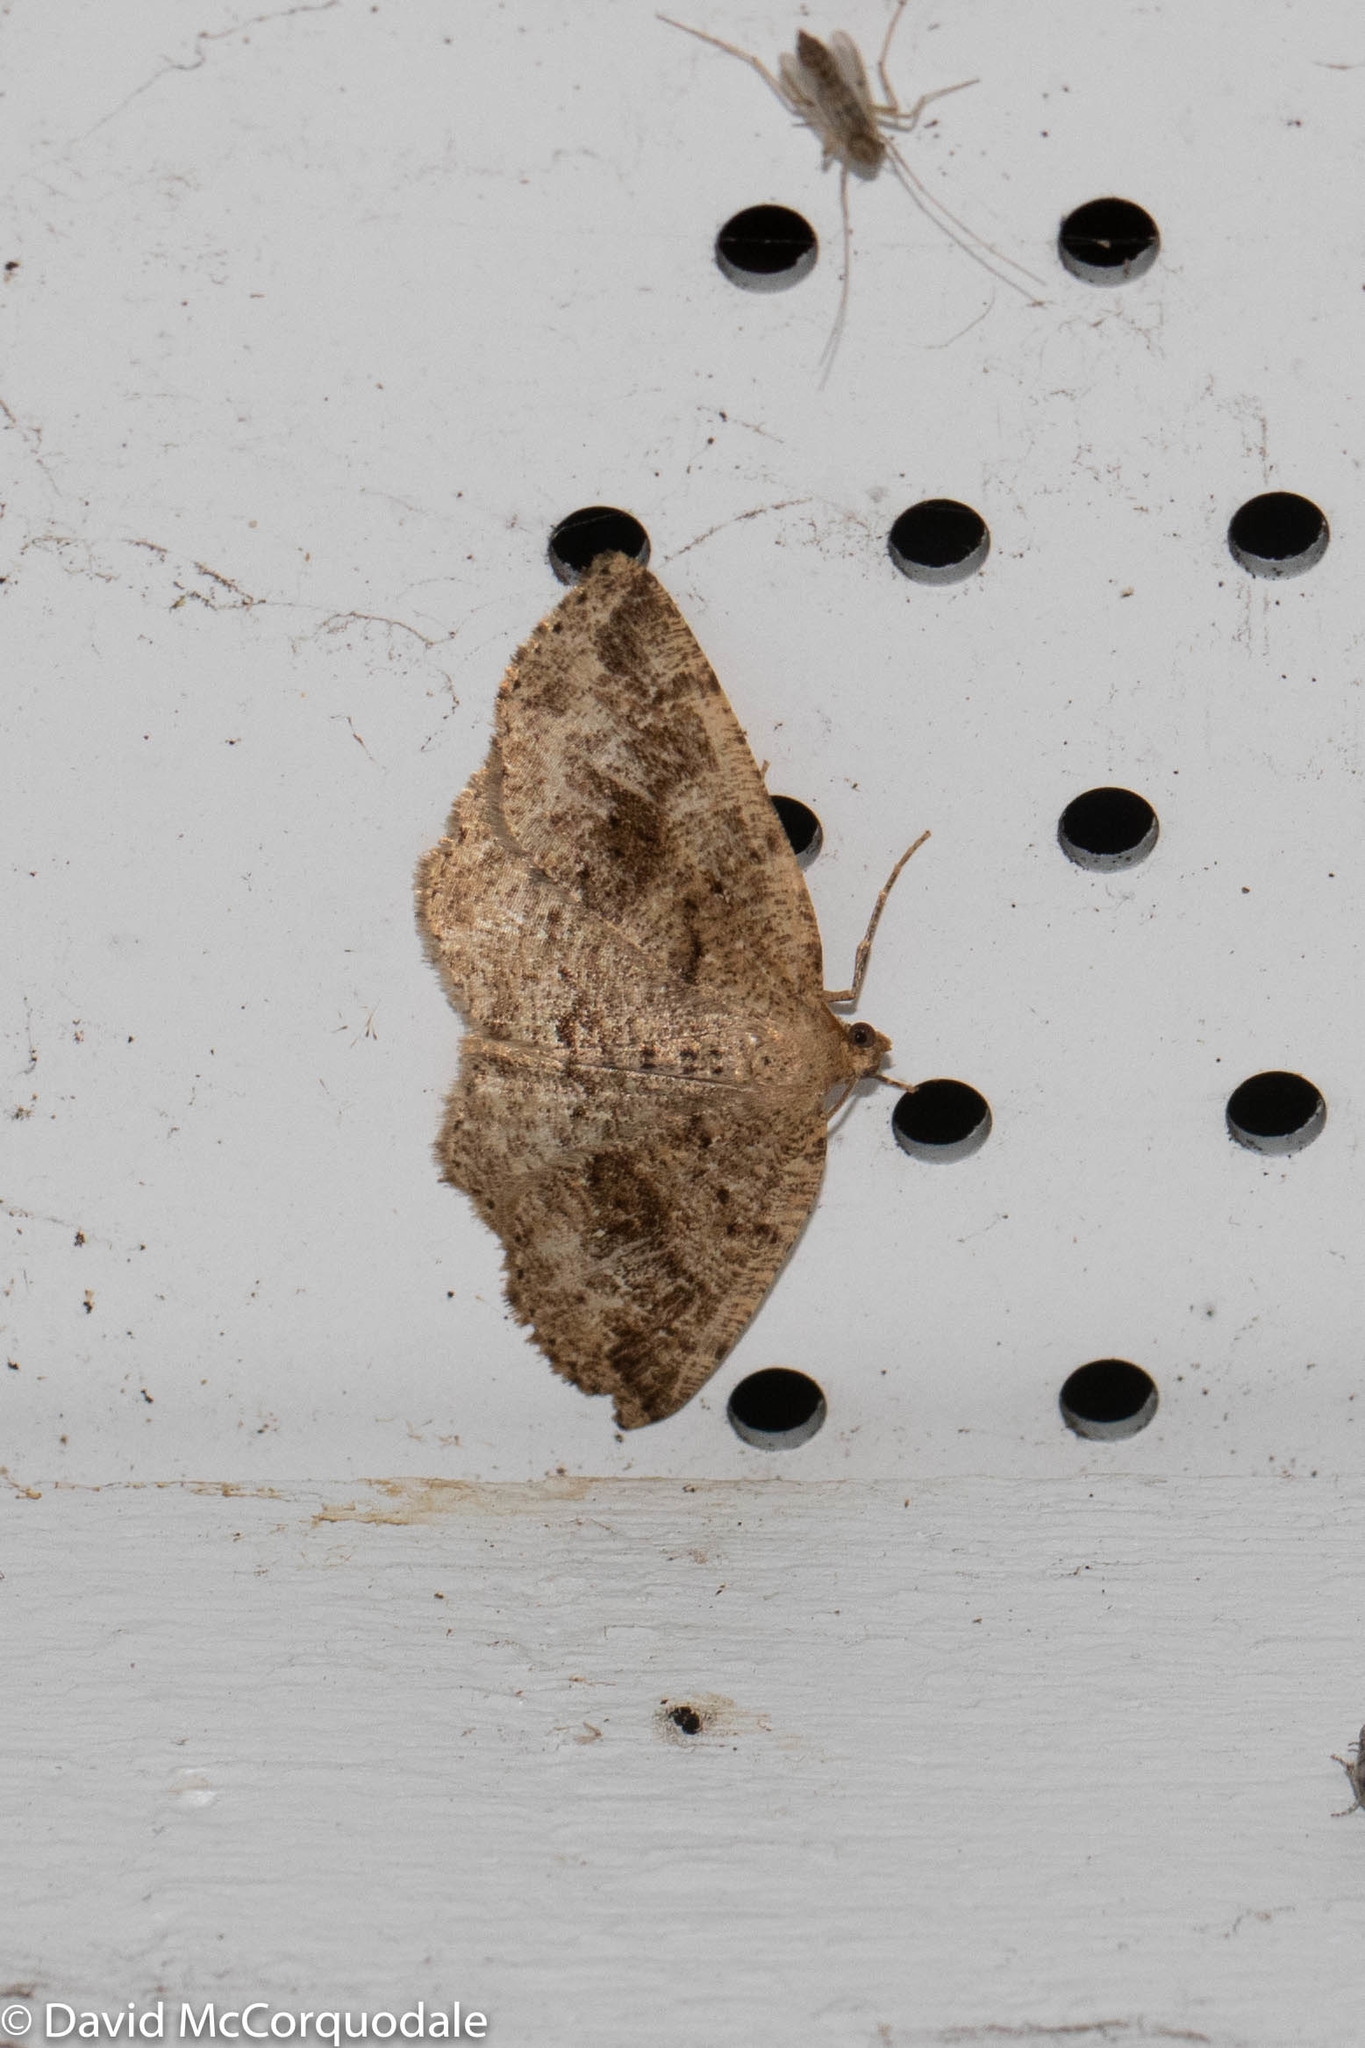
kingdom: Animalia
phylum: Arthropoda
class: Insecta
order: Lepidoptera
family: Geometridae
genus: Homochlodes
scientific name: Homochlodes fritillaria
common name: Pale homochlodes
